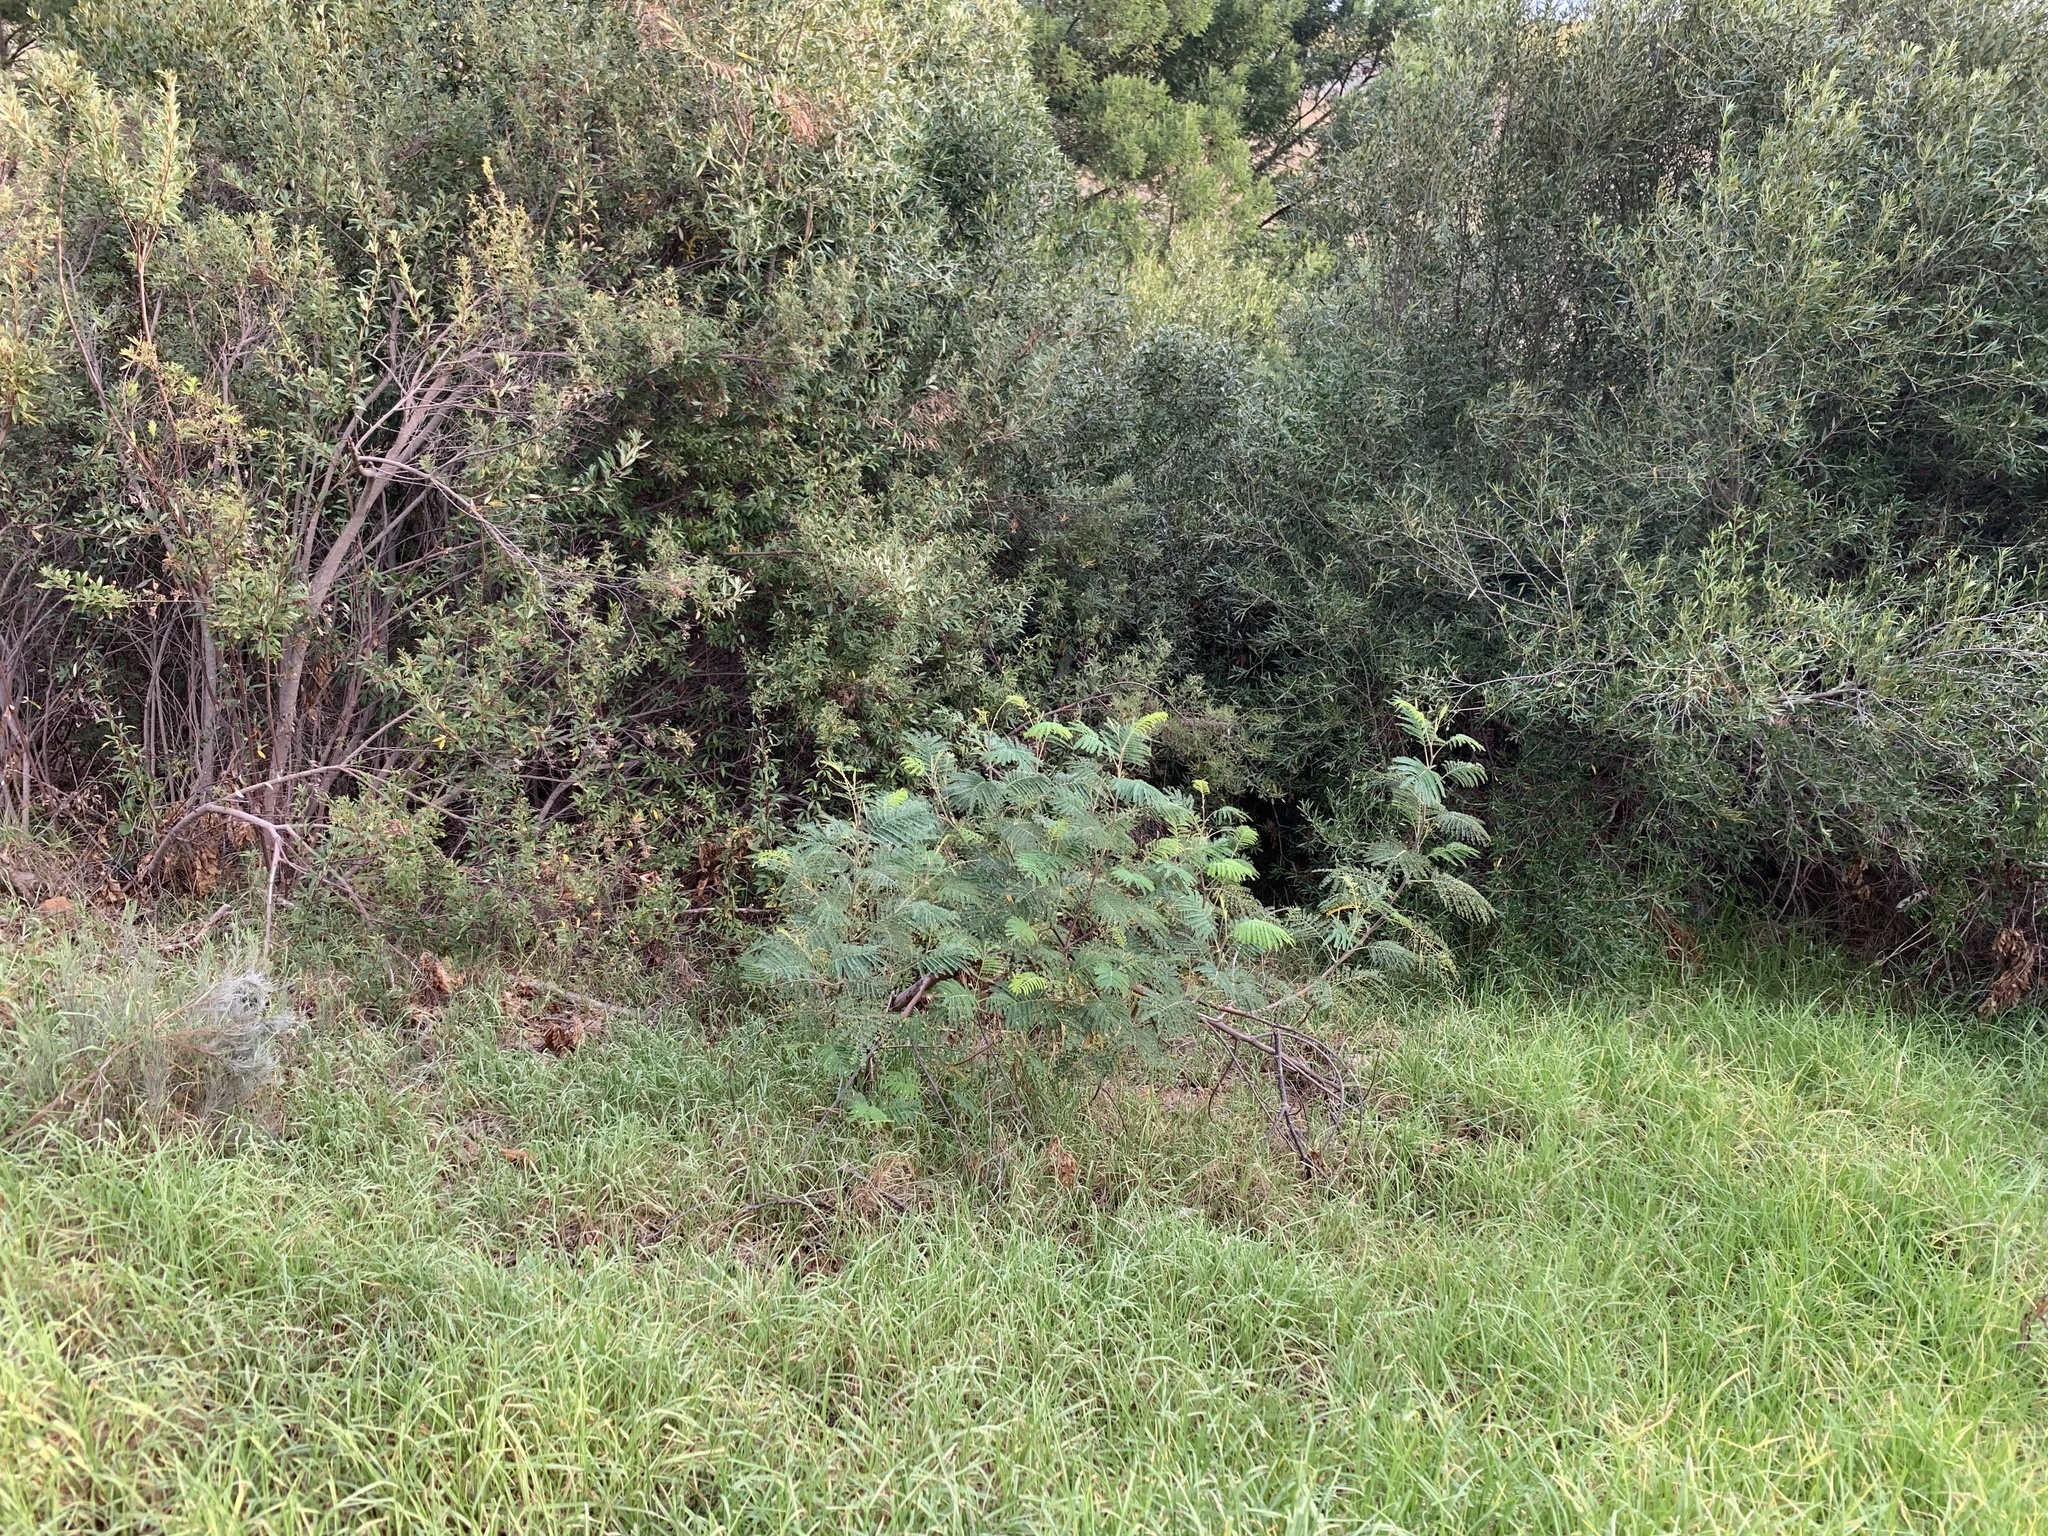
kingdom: Plantae
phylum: Tracheophyta
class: Magnoliopsida
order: Fabales
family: Fabaceae
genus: Paraserianthes
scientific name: Paraserianthes lophantha
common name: Plume albizia
